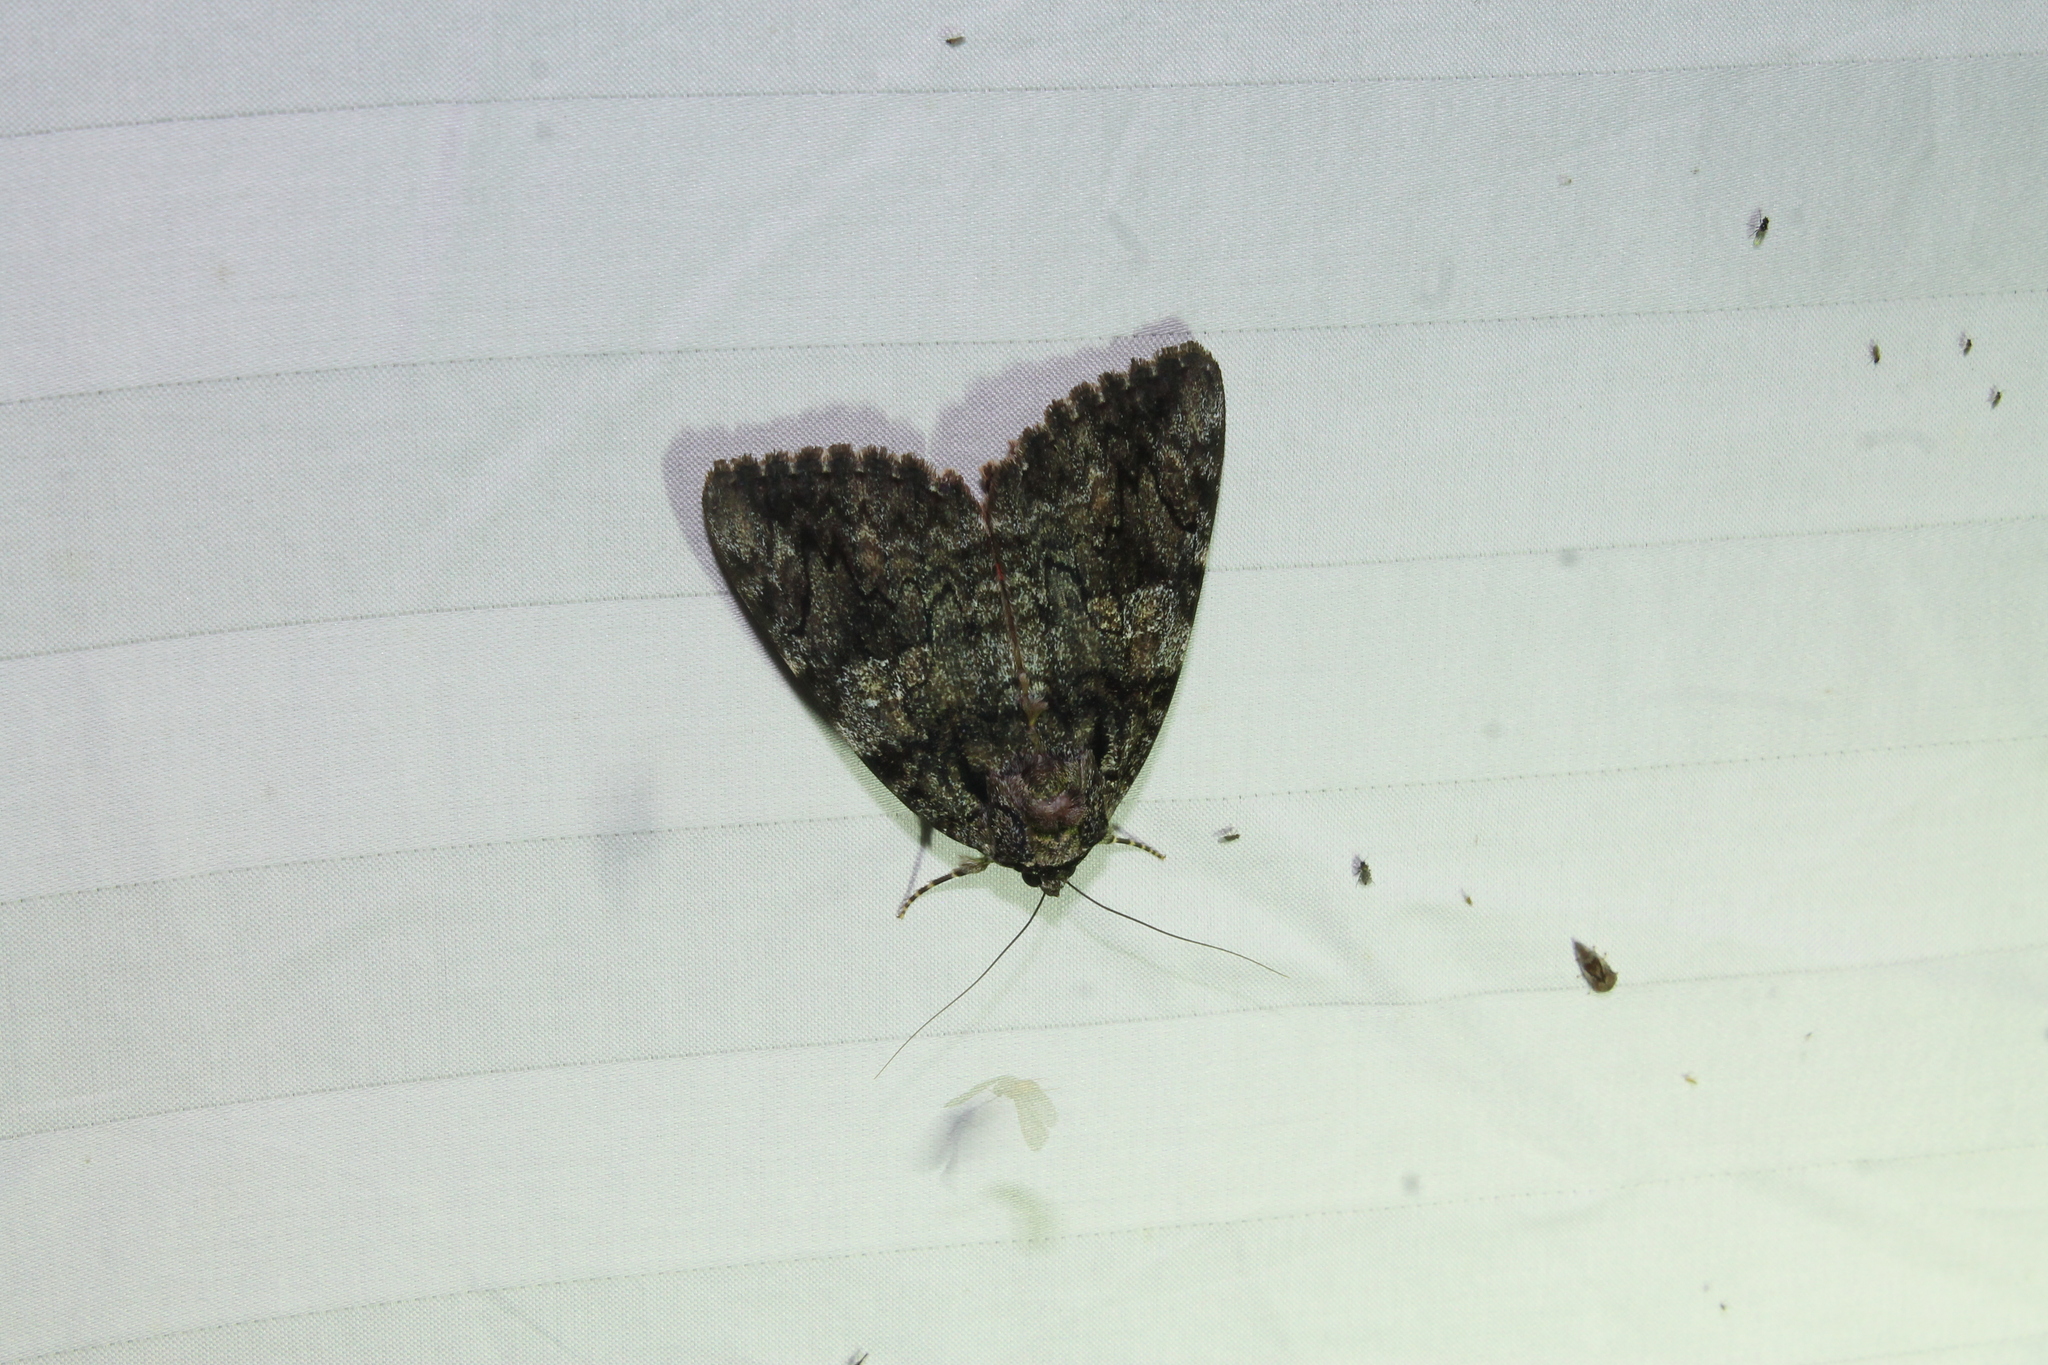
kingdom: Animalia
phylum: Arthropoda
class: Insecta
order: Lepidoptera
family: Erebidae
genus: Catocala
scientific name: Catocala ilia
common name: Ilia underwing
